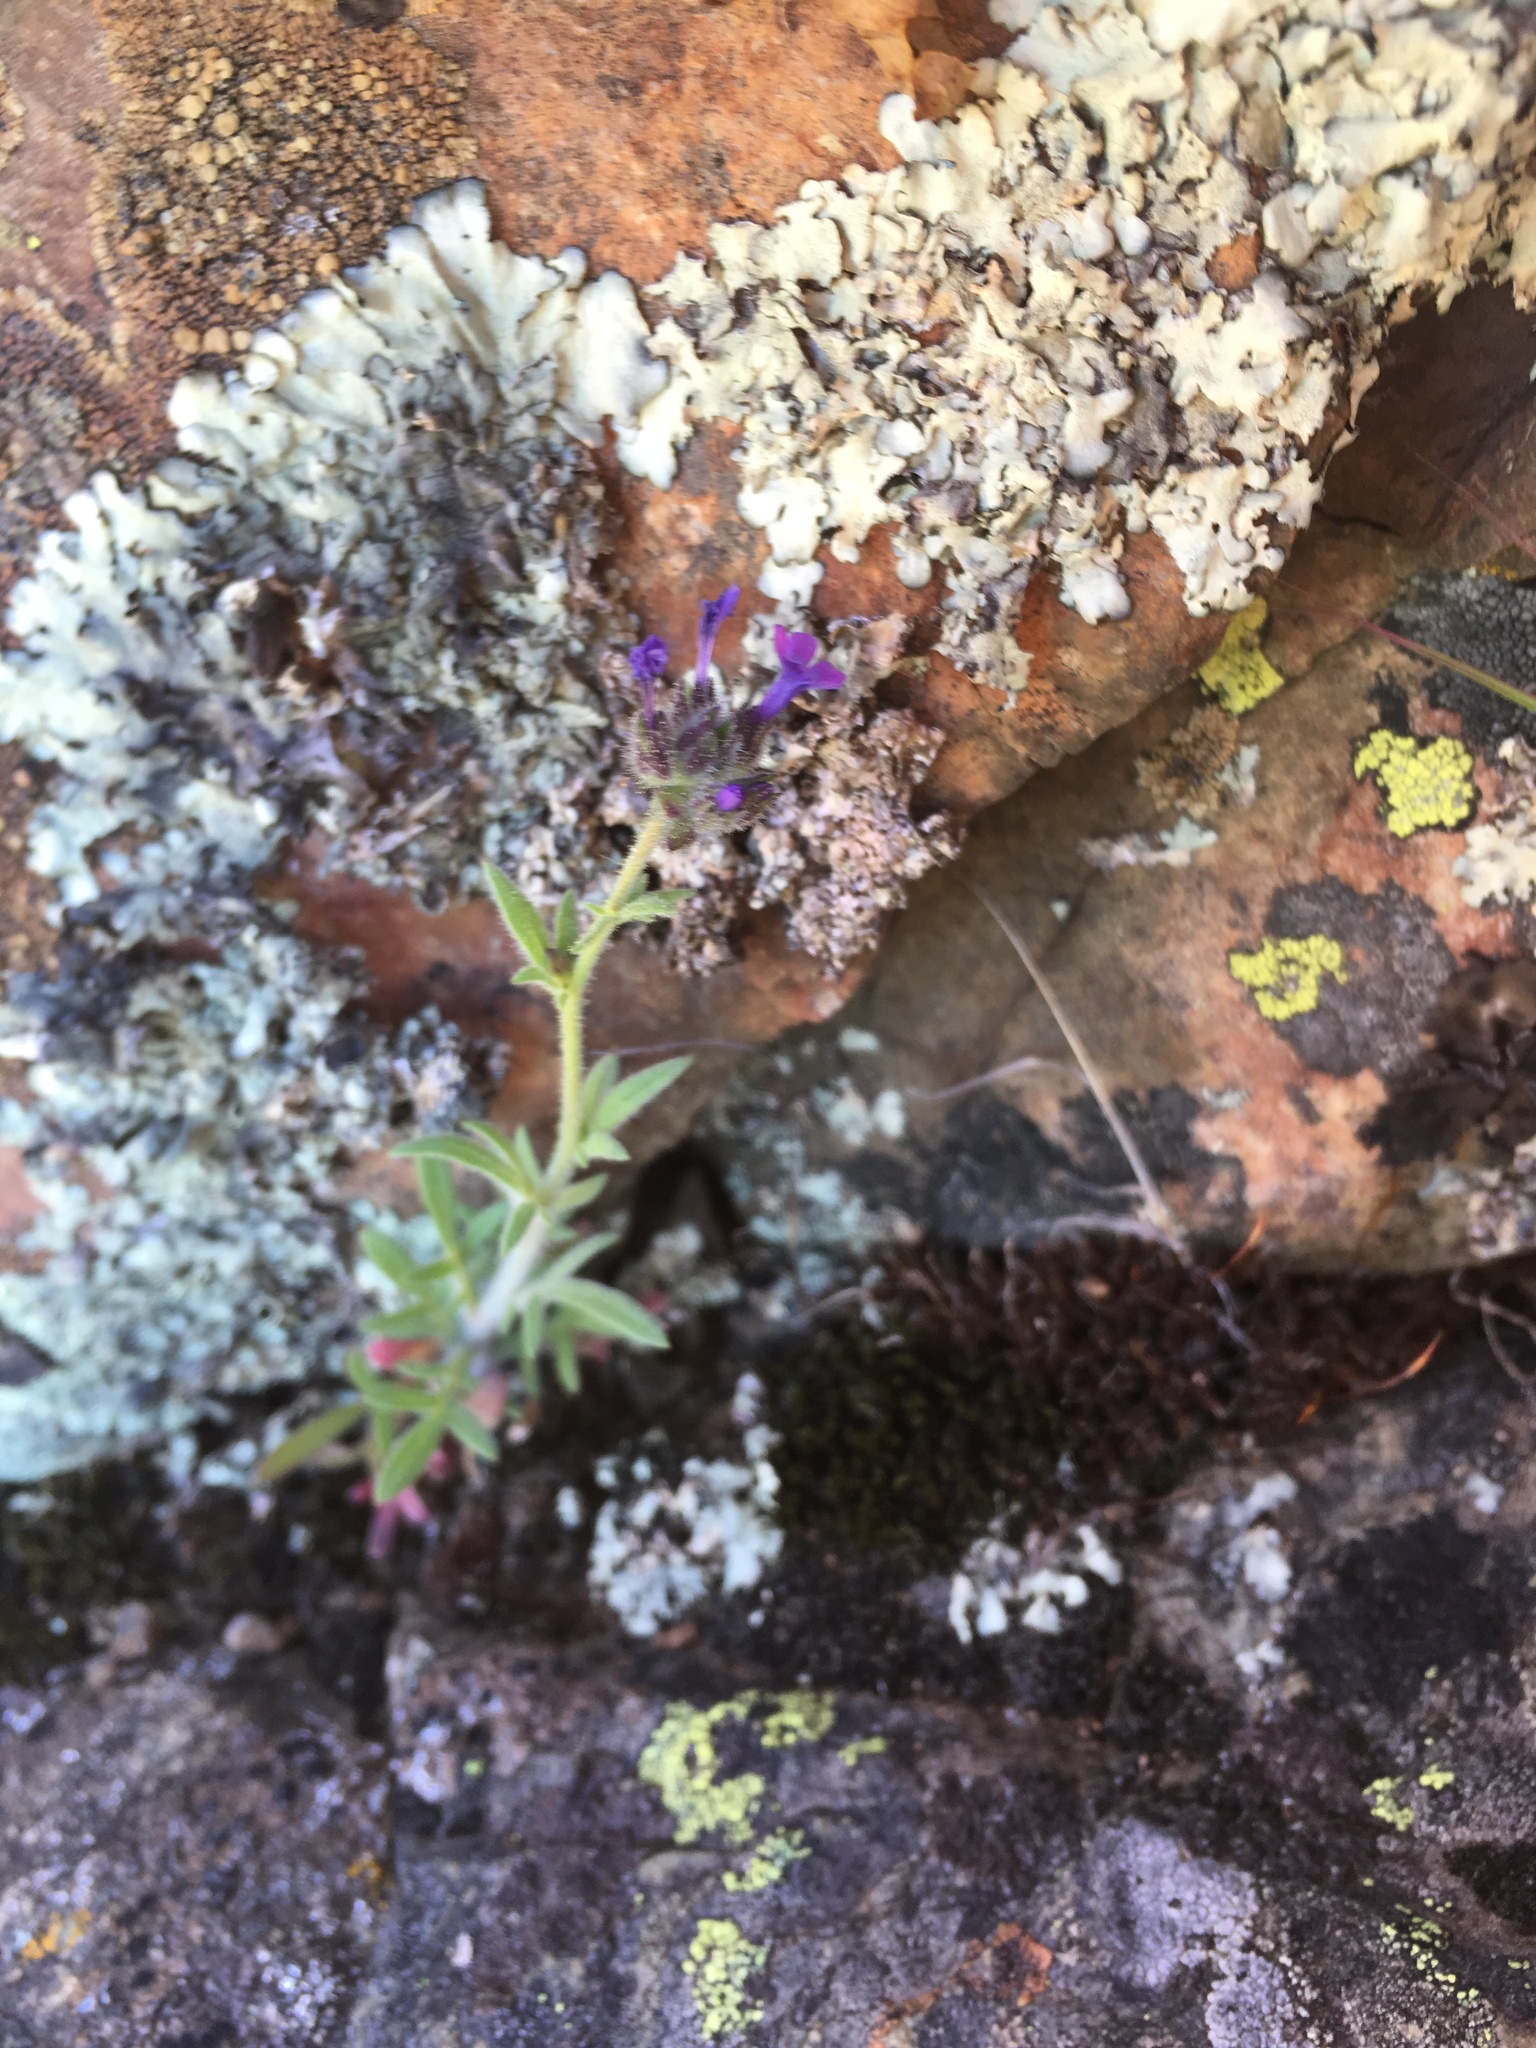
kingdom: Plantae
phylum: Tracheophyta
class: Magnoliopsida
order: Ericales
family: Polemoniaceae
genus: Allophyllum
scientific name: Allophyllum gilioides
